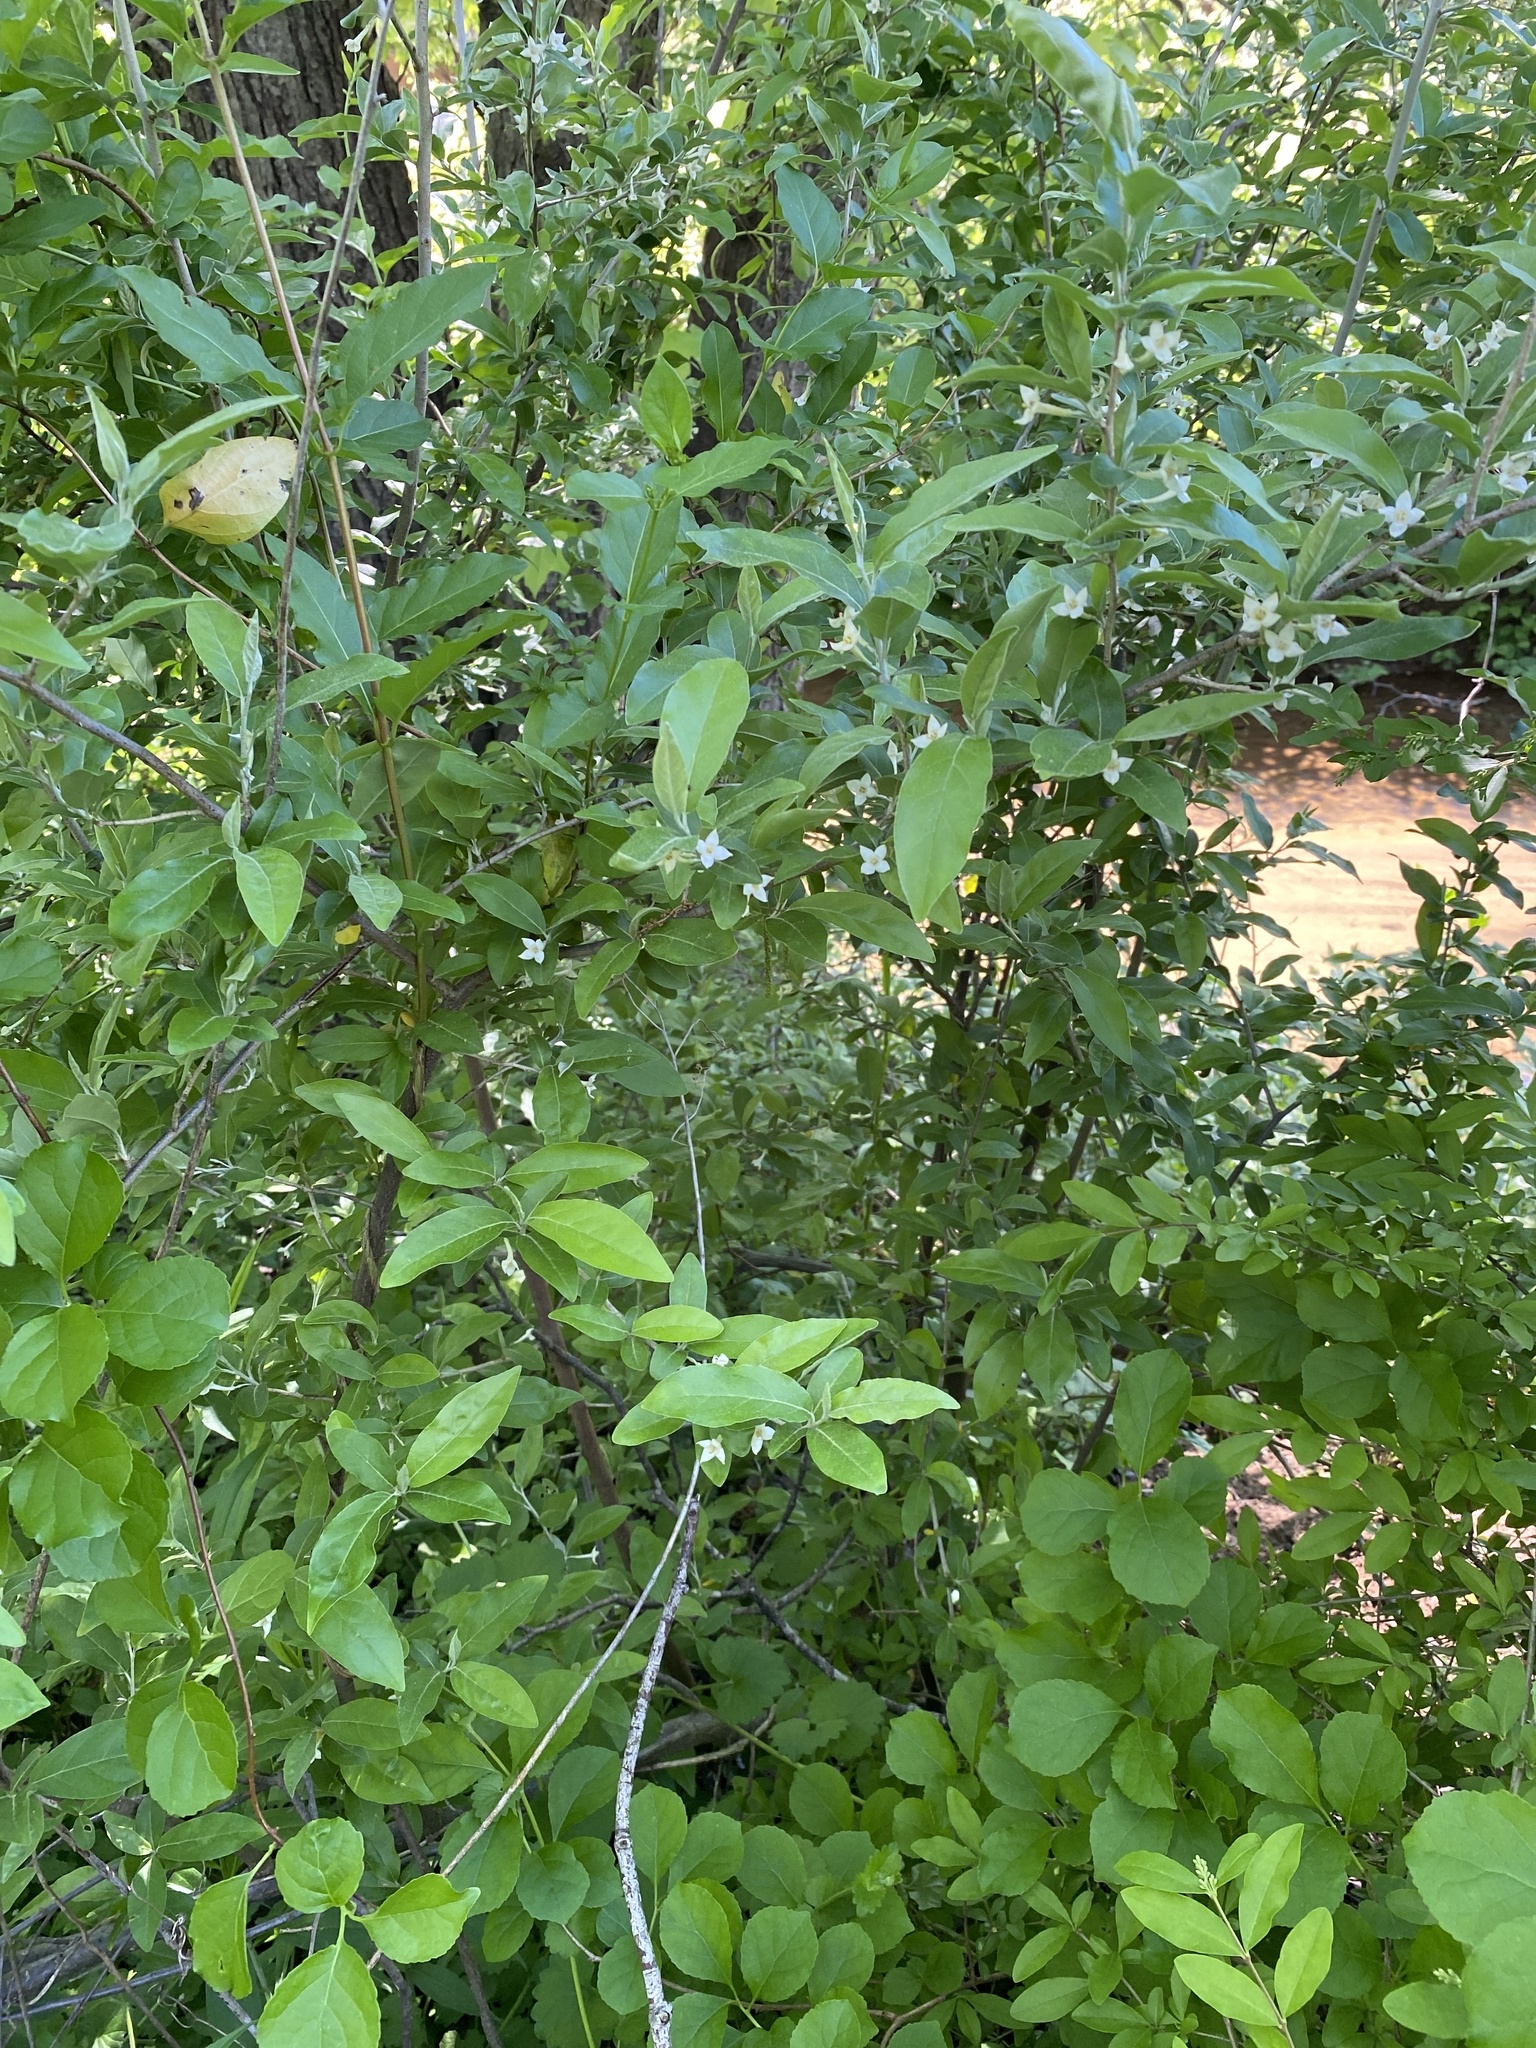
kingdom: Plantae
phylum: Tracheophyta
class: Magnoliopsida
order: Rosales
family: Elaeagnaceae
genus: Elaeagnus
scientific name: Elaeagnus umbellata
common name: Autumn olive
